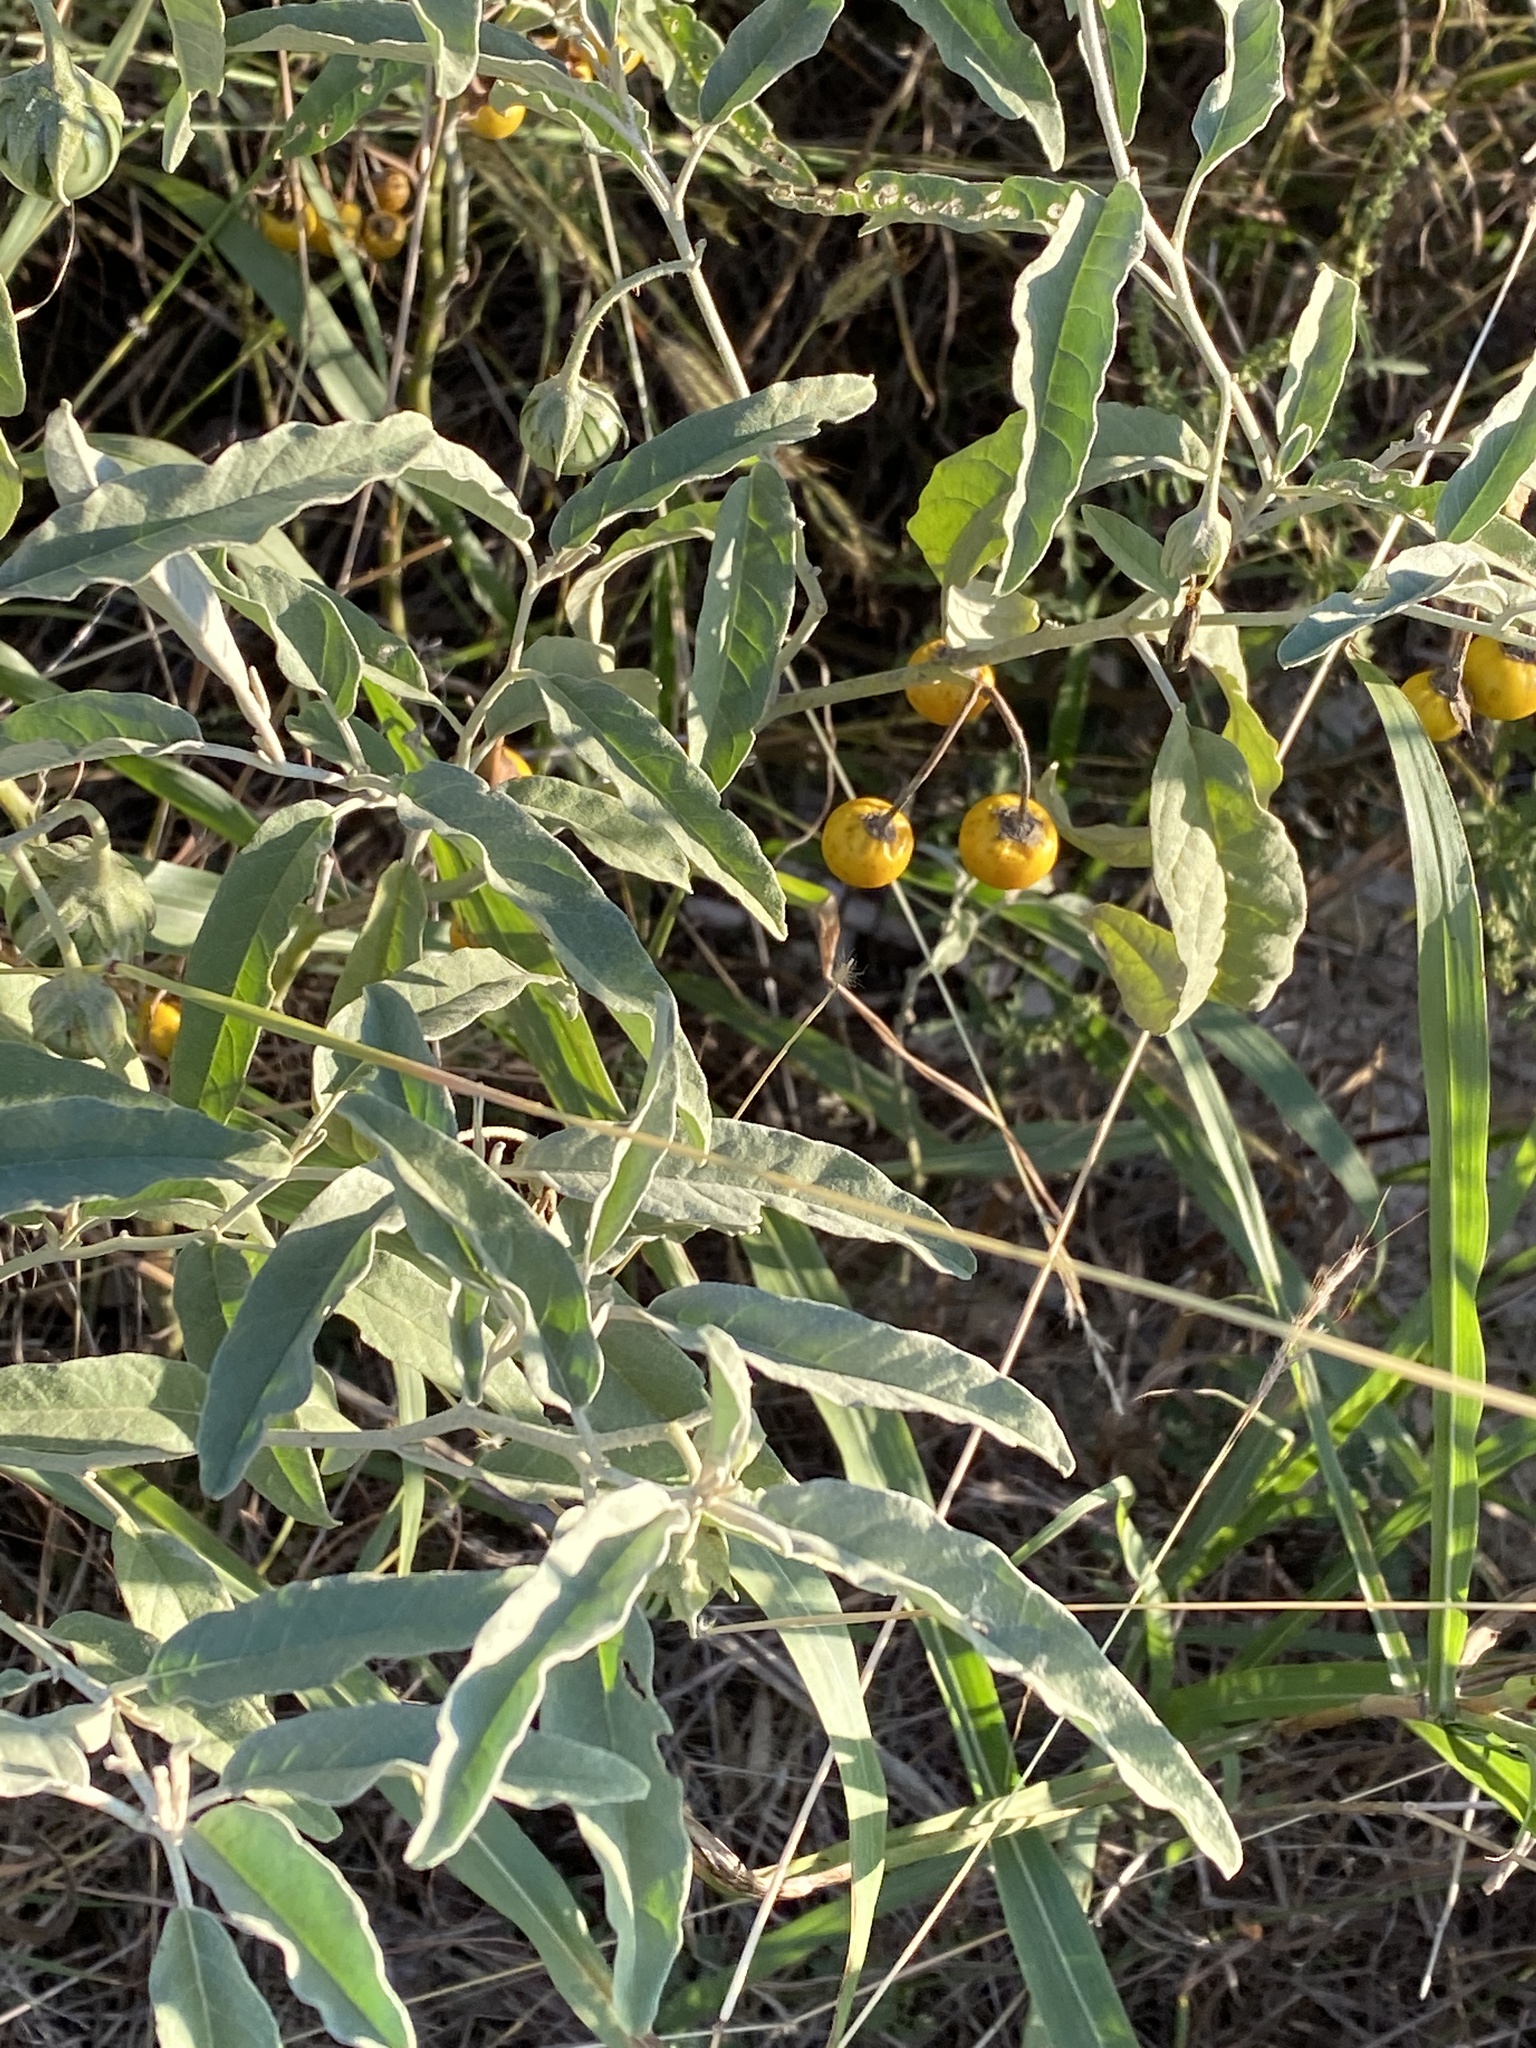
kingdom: Plantae
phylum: Tracheophyta
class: Magnoliopsida
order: Solanales
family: Solanaceae
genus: Solanum
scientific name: Solanum elaeagnifolium
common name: Silverleaf nightshade
